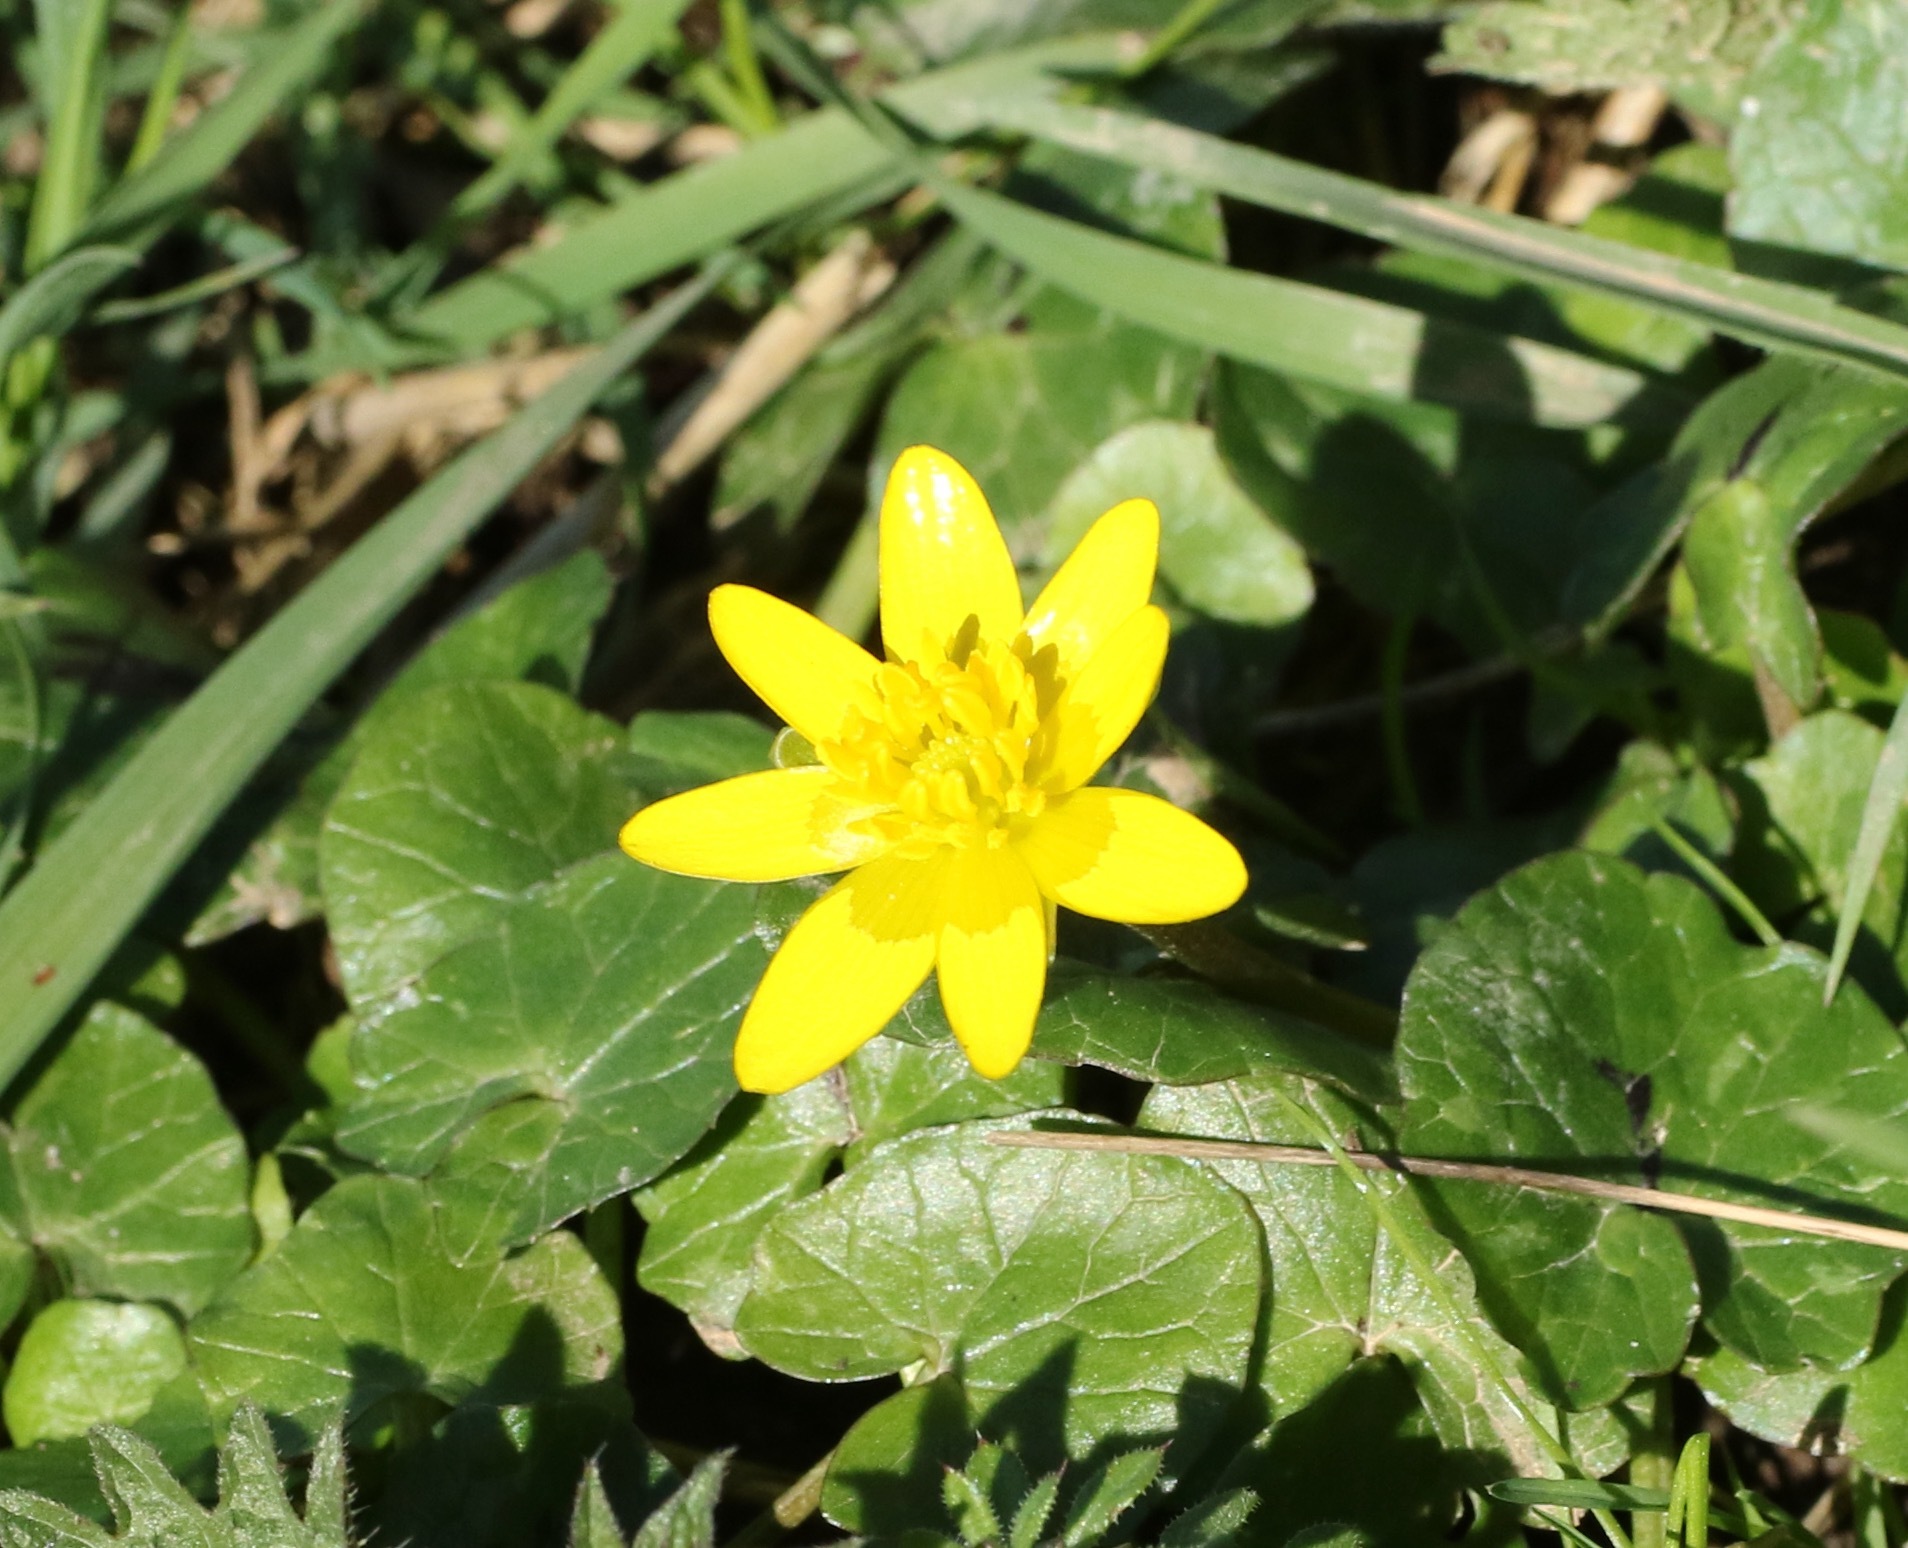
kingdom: Plantae
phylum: Tracheophyta
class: Magnoliopsida
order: Ranunculales
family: Ranunculaceae
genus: Ficaria
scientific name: Ficaria verna
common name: Lesser celandine
